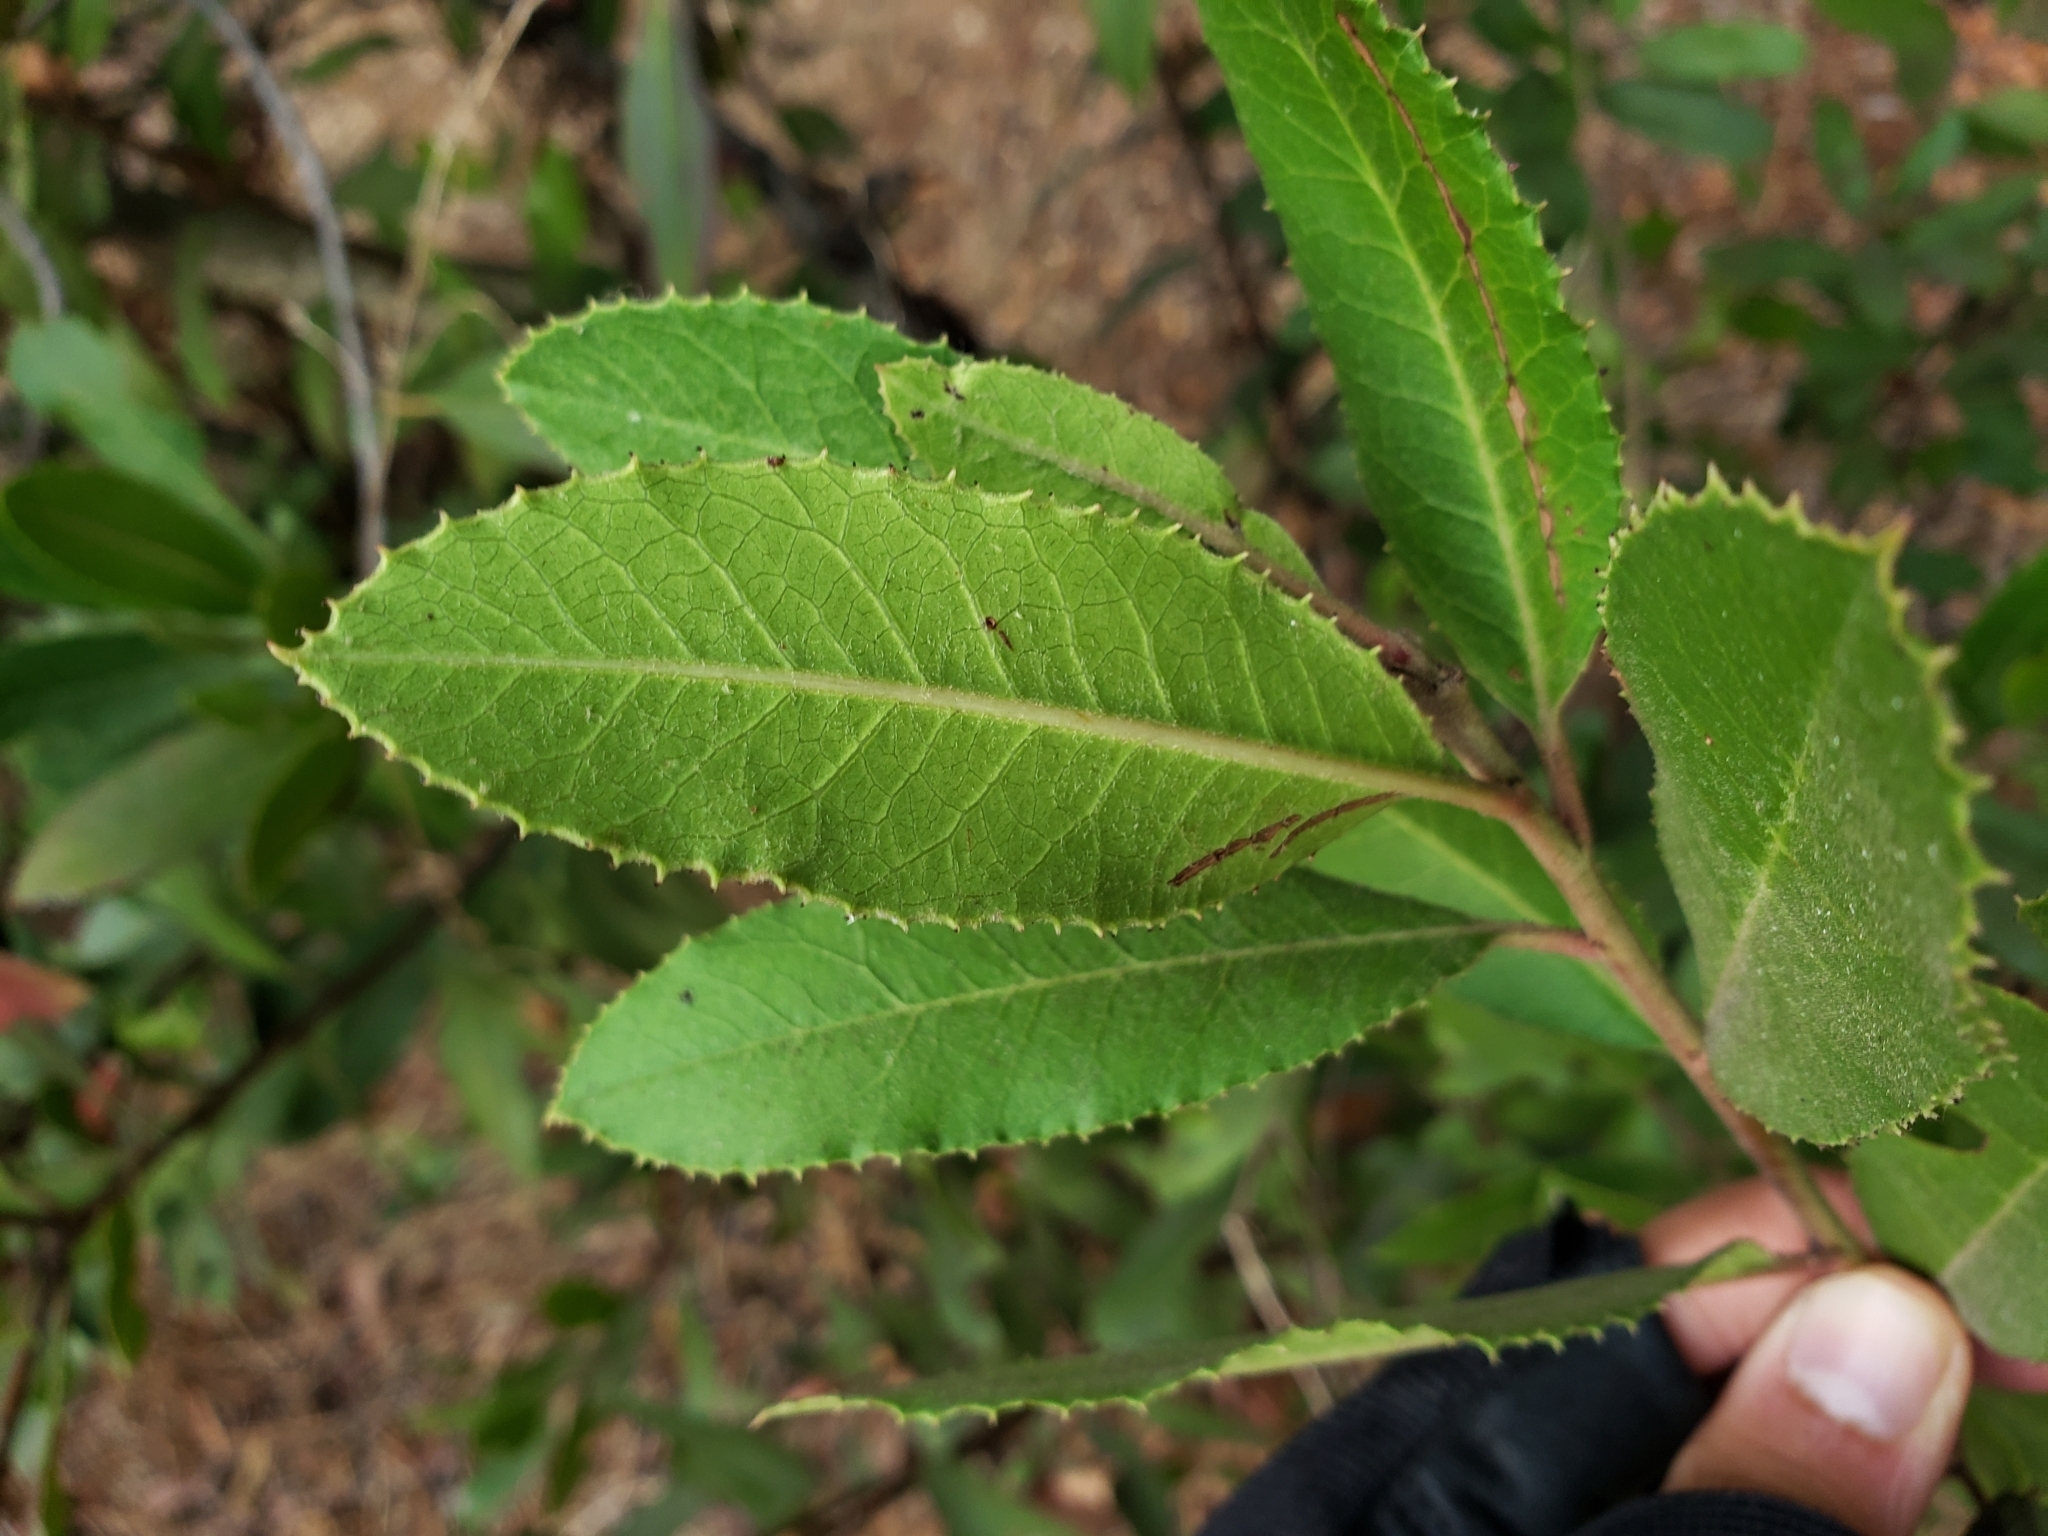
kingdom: Plantae
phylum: Tracheophyta
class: Magnoliopsida
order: Rosales
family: Rosaceae
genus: Heteromeles
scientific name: Heteromeles arbutifolia
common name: California-holly
